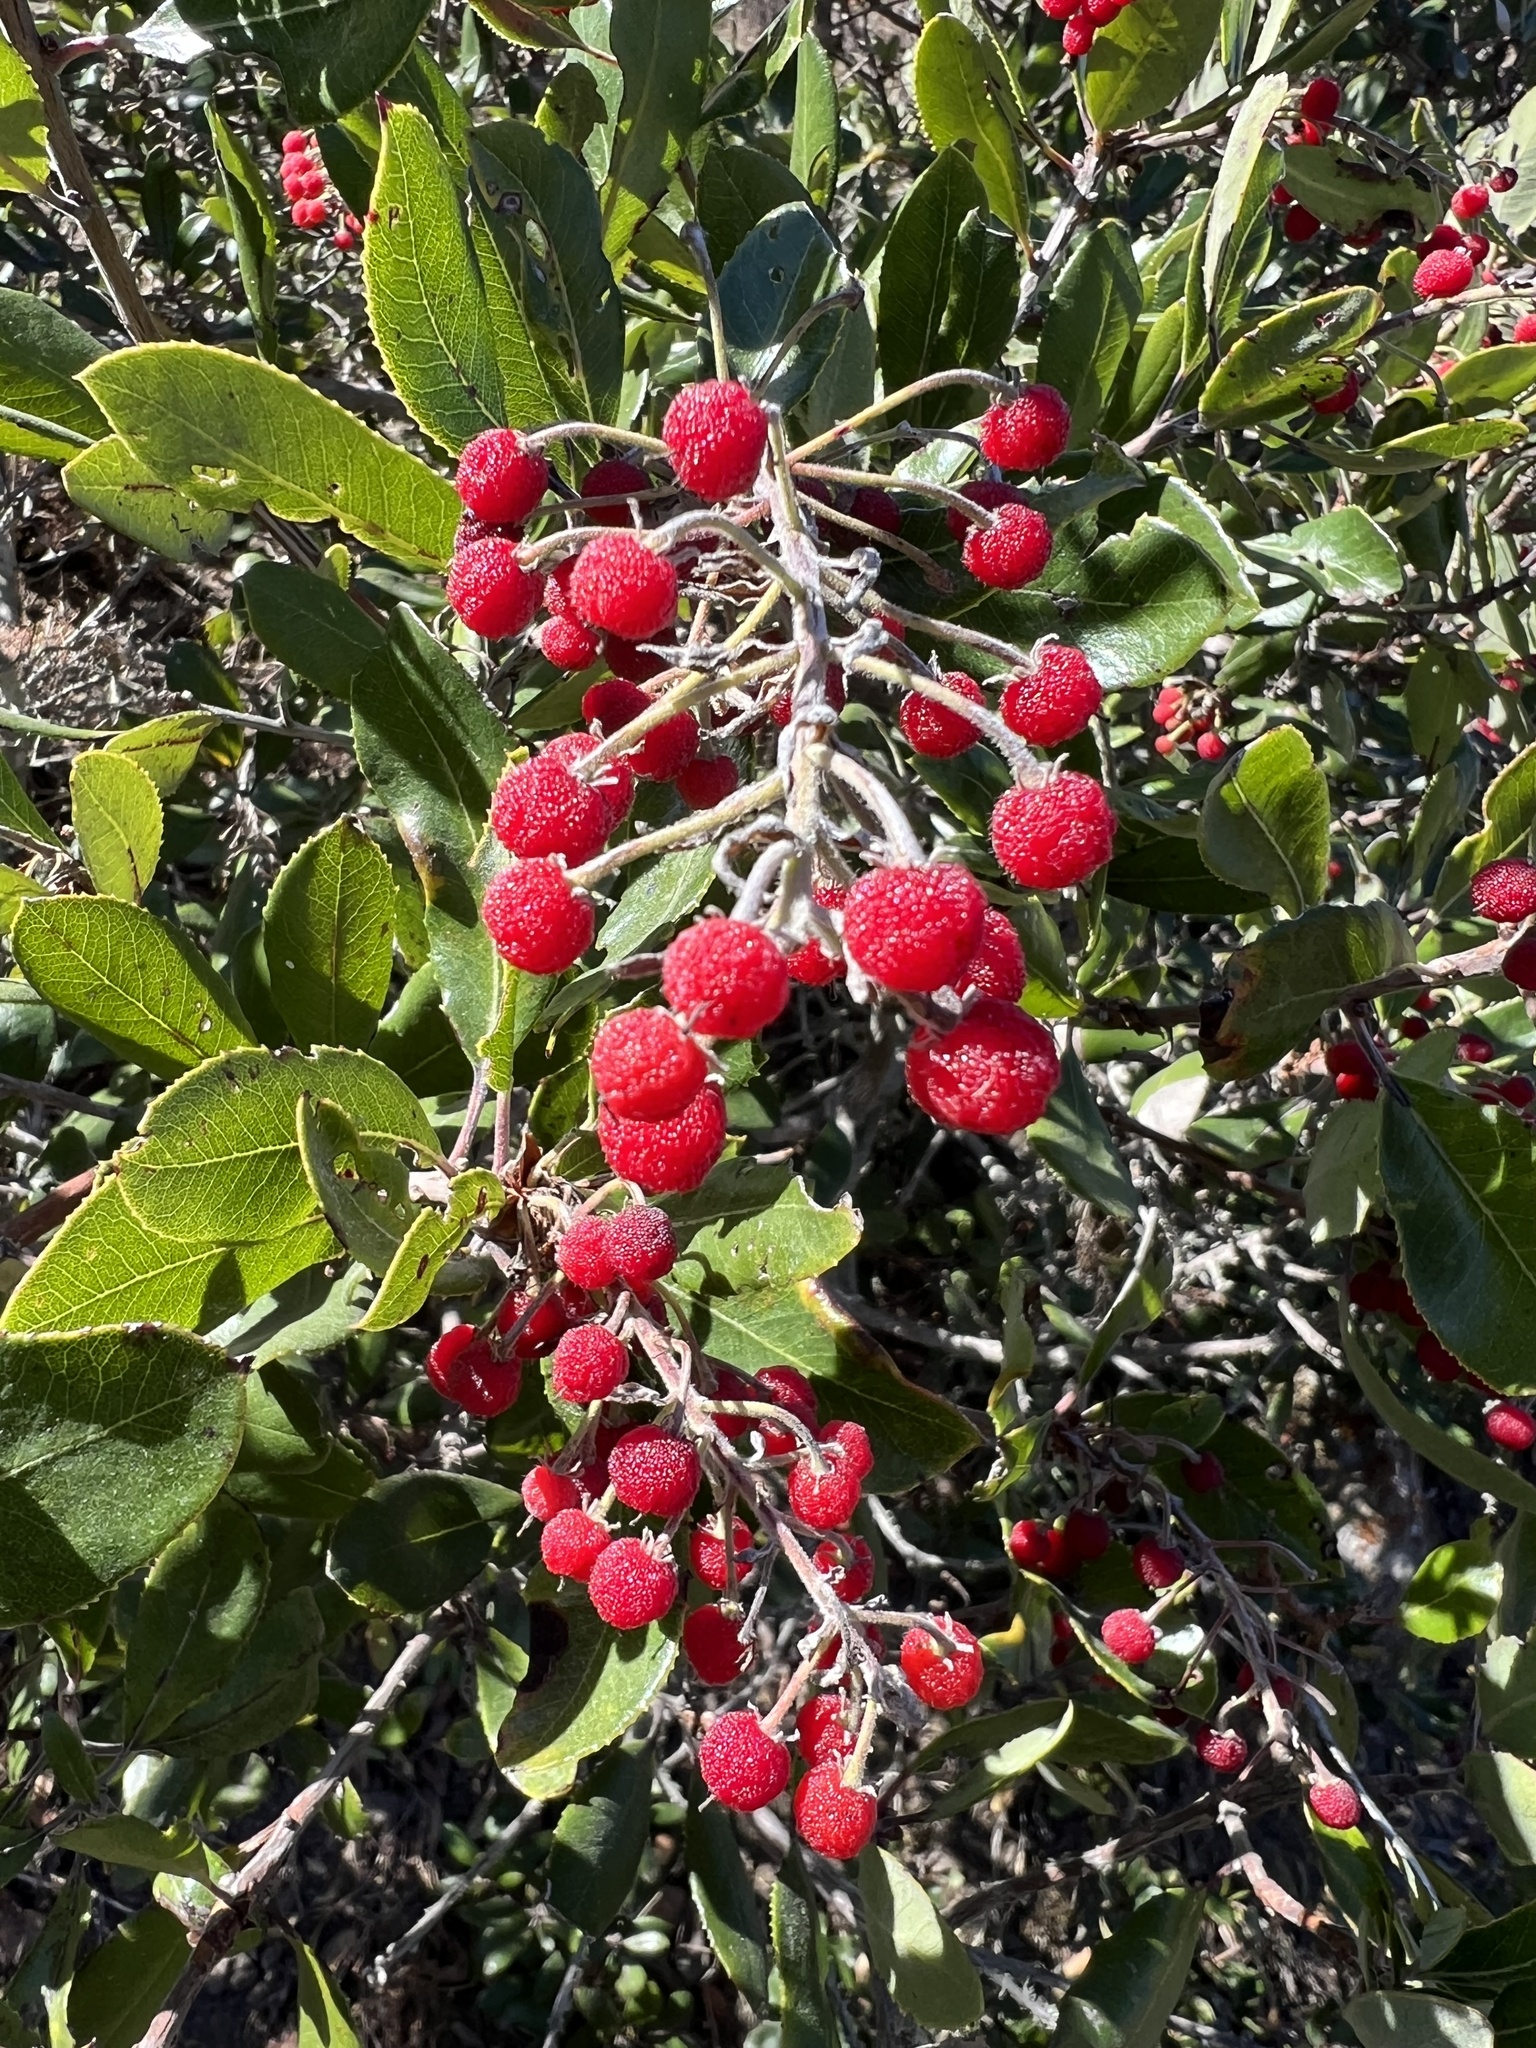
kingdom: Plantae
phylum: Tracheophyta
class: Magnoliopsida
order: Ericales
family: Ericaceae
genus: Comarostaphylis
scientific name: Comarostaphylis diversifolia
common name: Summer-holly
